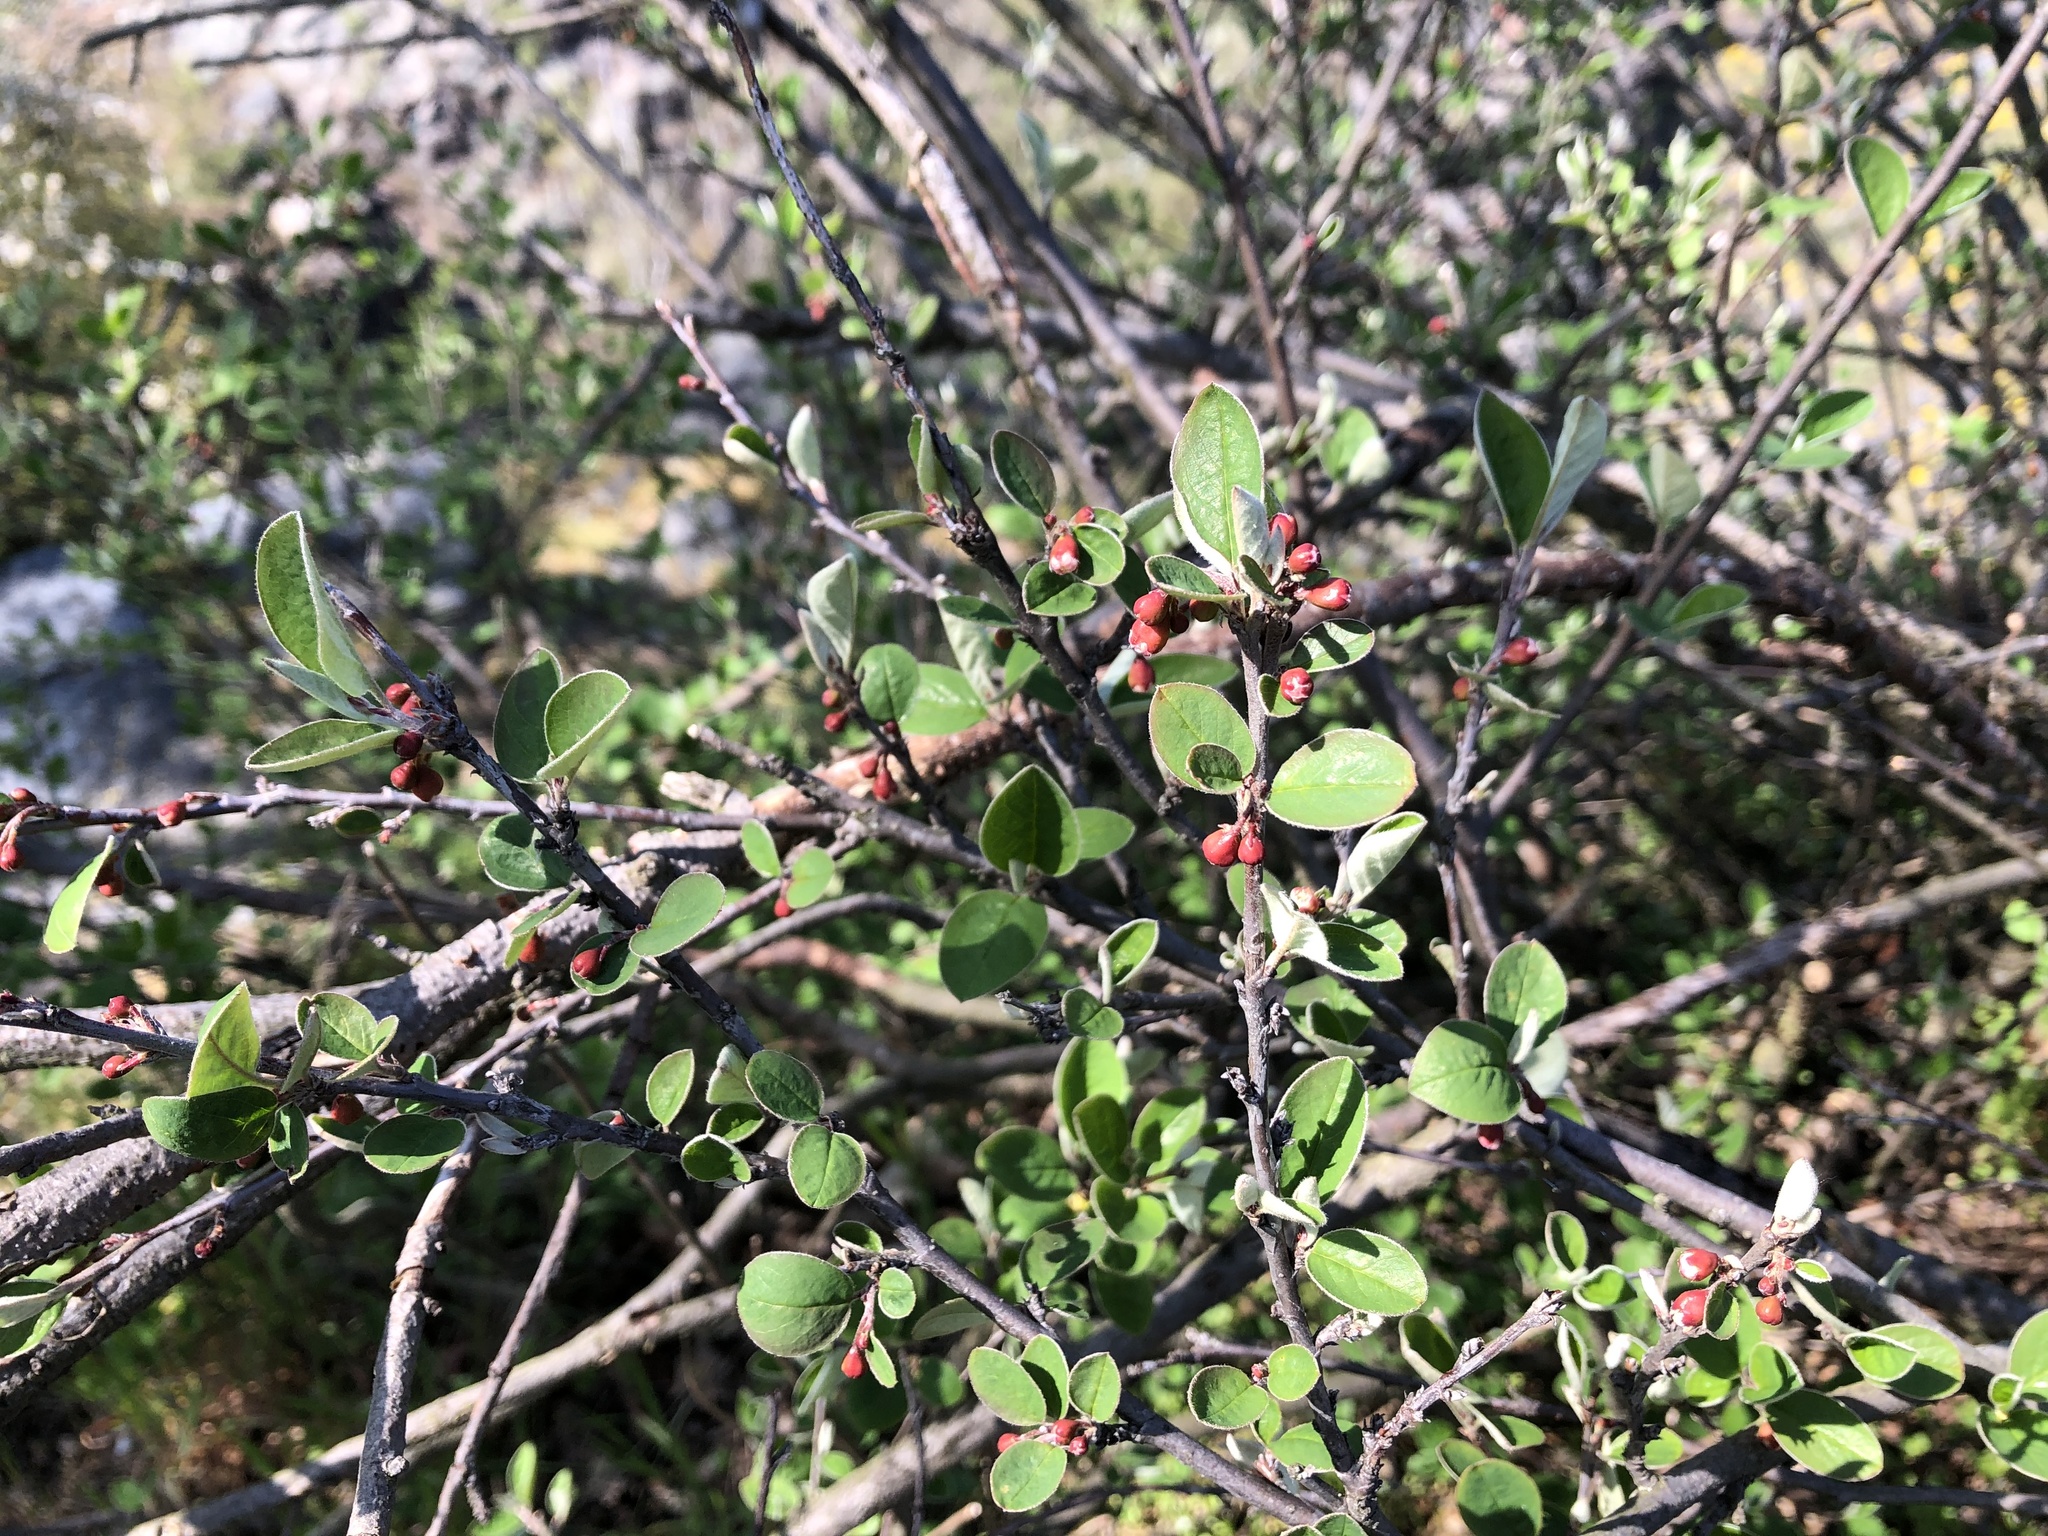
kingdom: Plantae
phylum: Tracheophyta
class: Magnoliopsida
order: Rosales
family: Rosaceae
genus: Cotoneaster
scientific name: Cotoneaster integerrimus
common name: Wild cotoneaster
